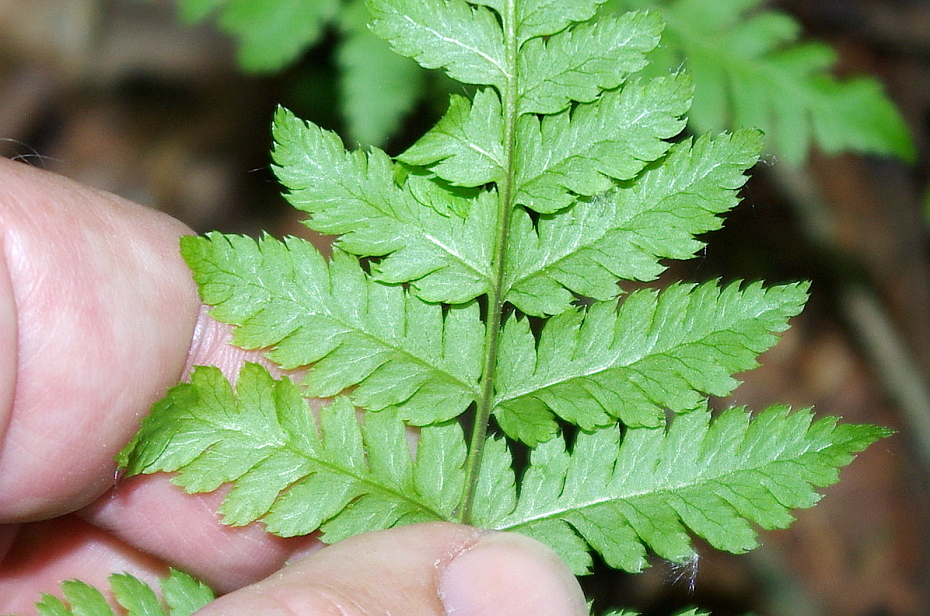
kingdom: Plantae
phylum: Tracheophyta
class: Polypodiopsida
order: Polypodiales
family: Dryopteridaceae
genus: Dryopteris
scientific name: Dryopteris carthusiana
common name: Narrow buckler-fern
